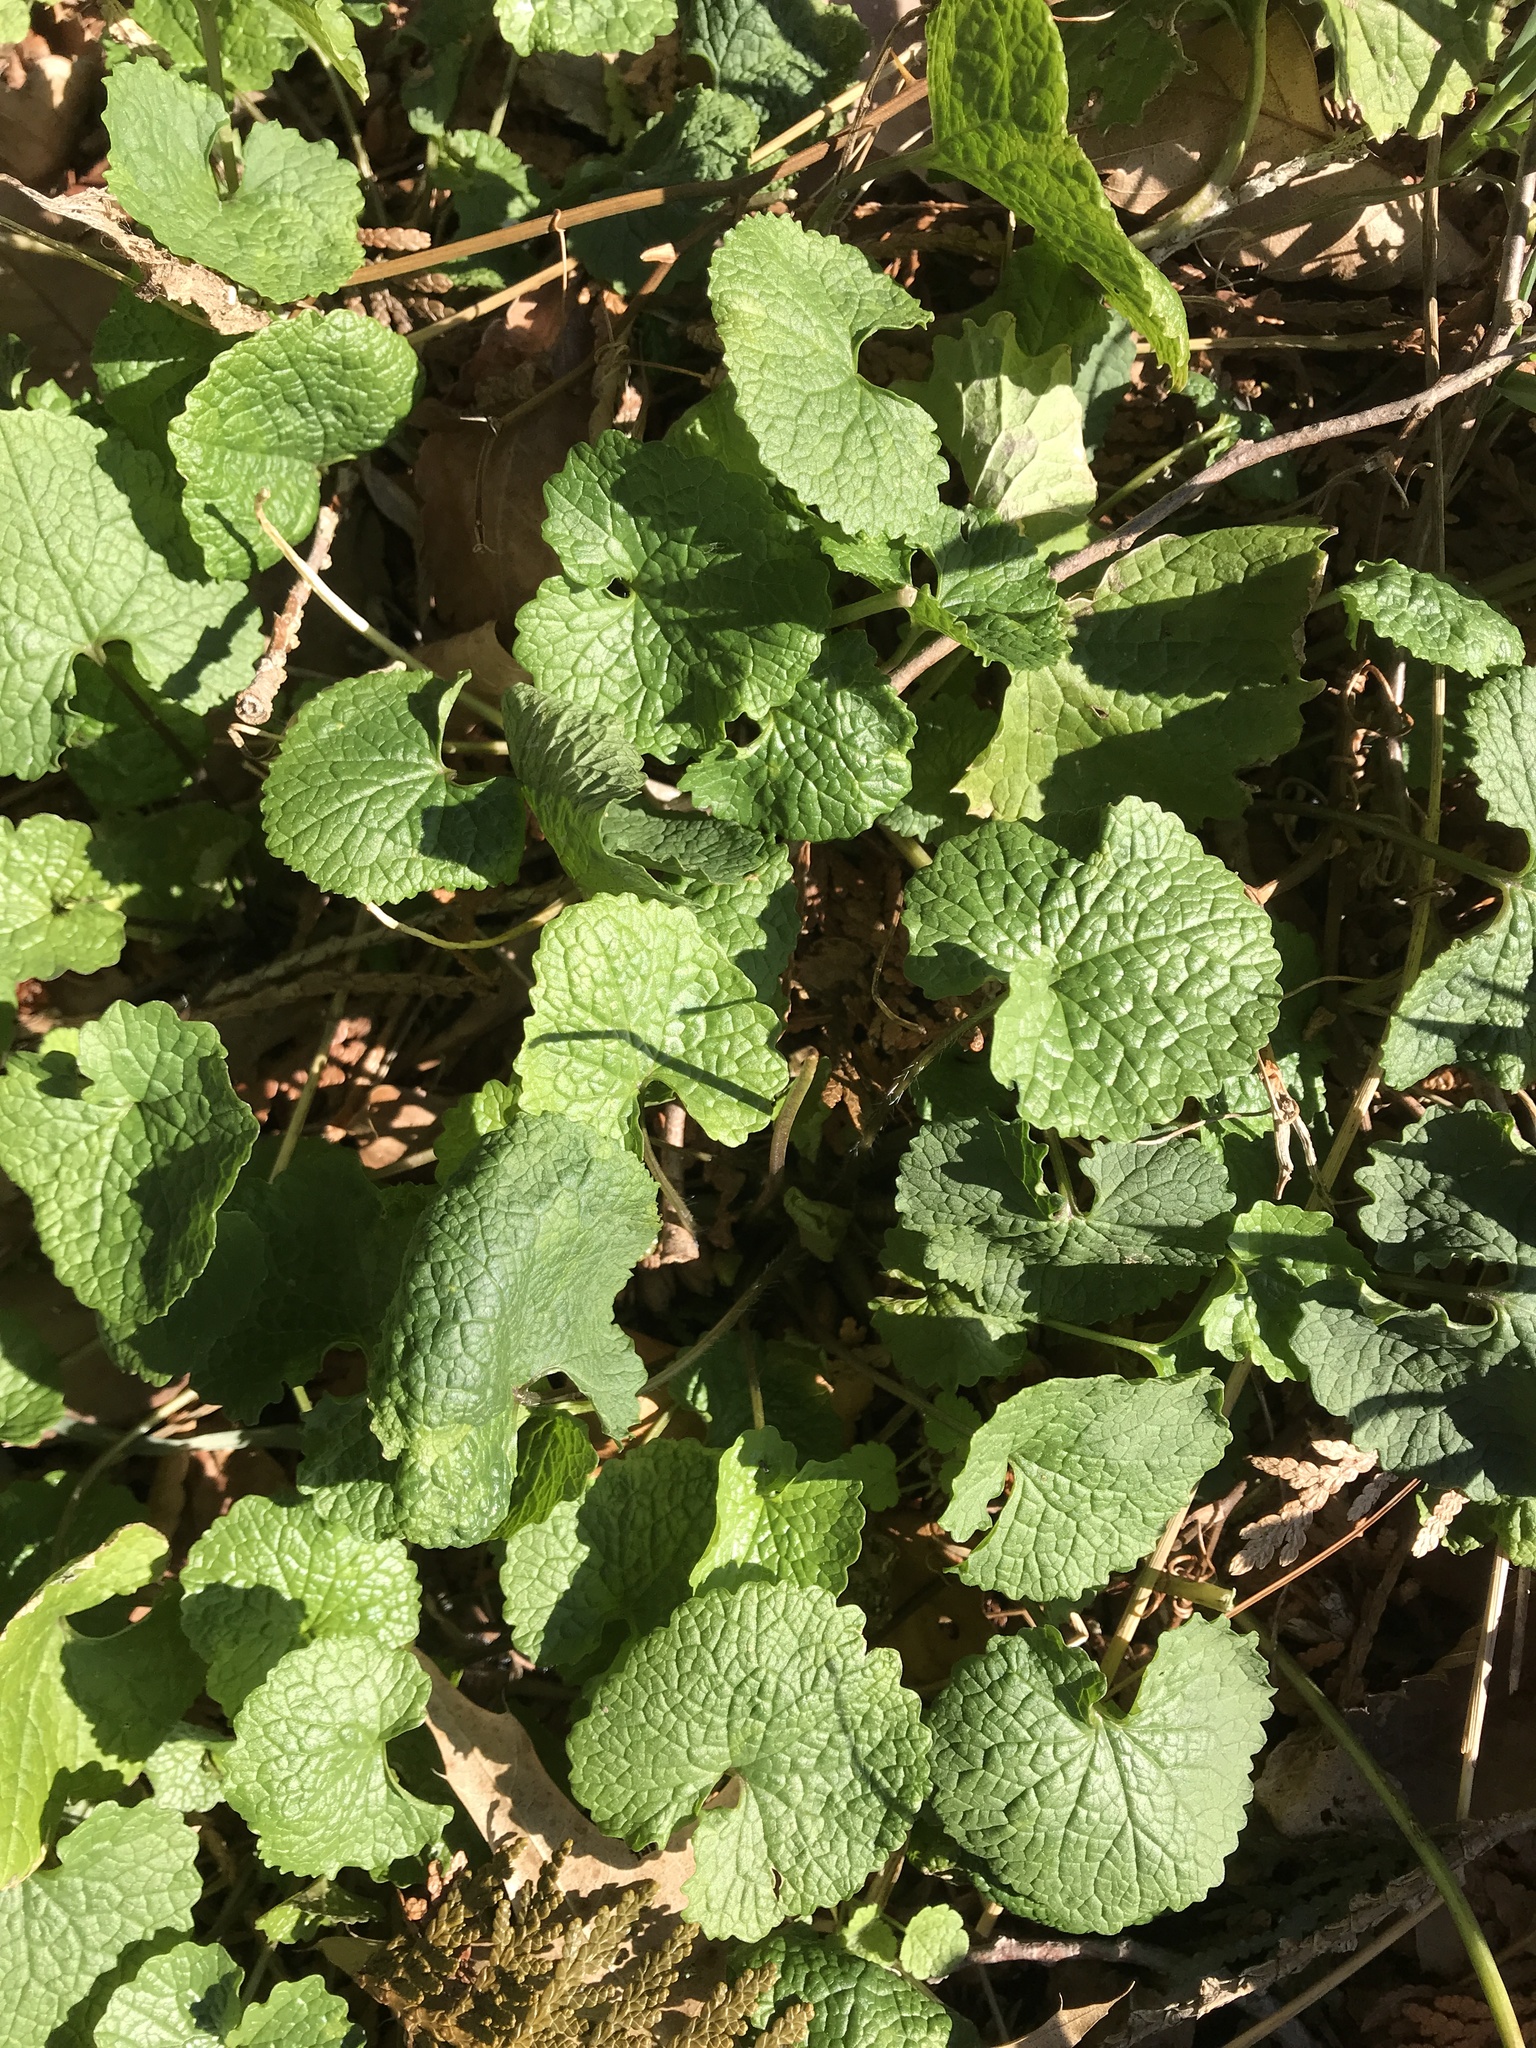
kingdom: Plantae
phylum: Tracheophyta
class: Magnoliopsida
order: Brassicales
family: Brassicaceae
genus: Alliaria
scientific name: Alliaria petiolata
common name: Garlic mustard
